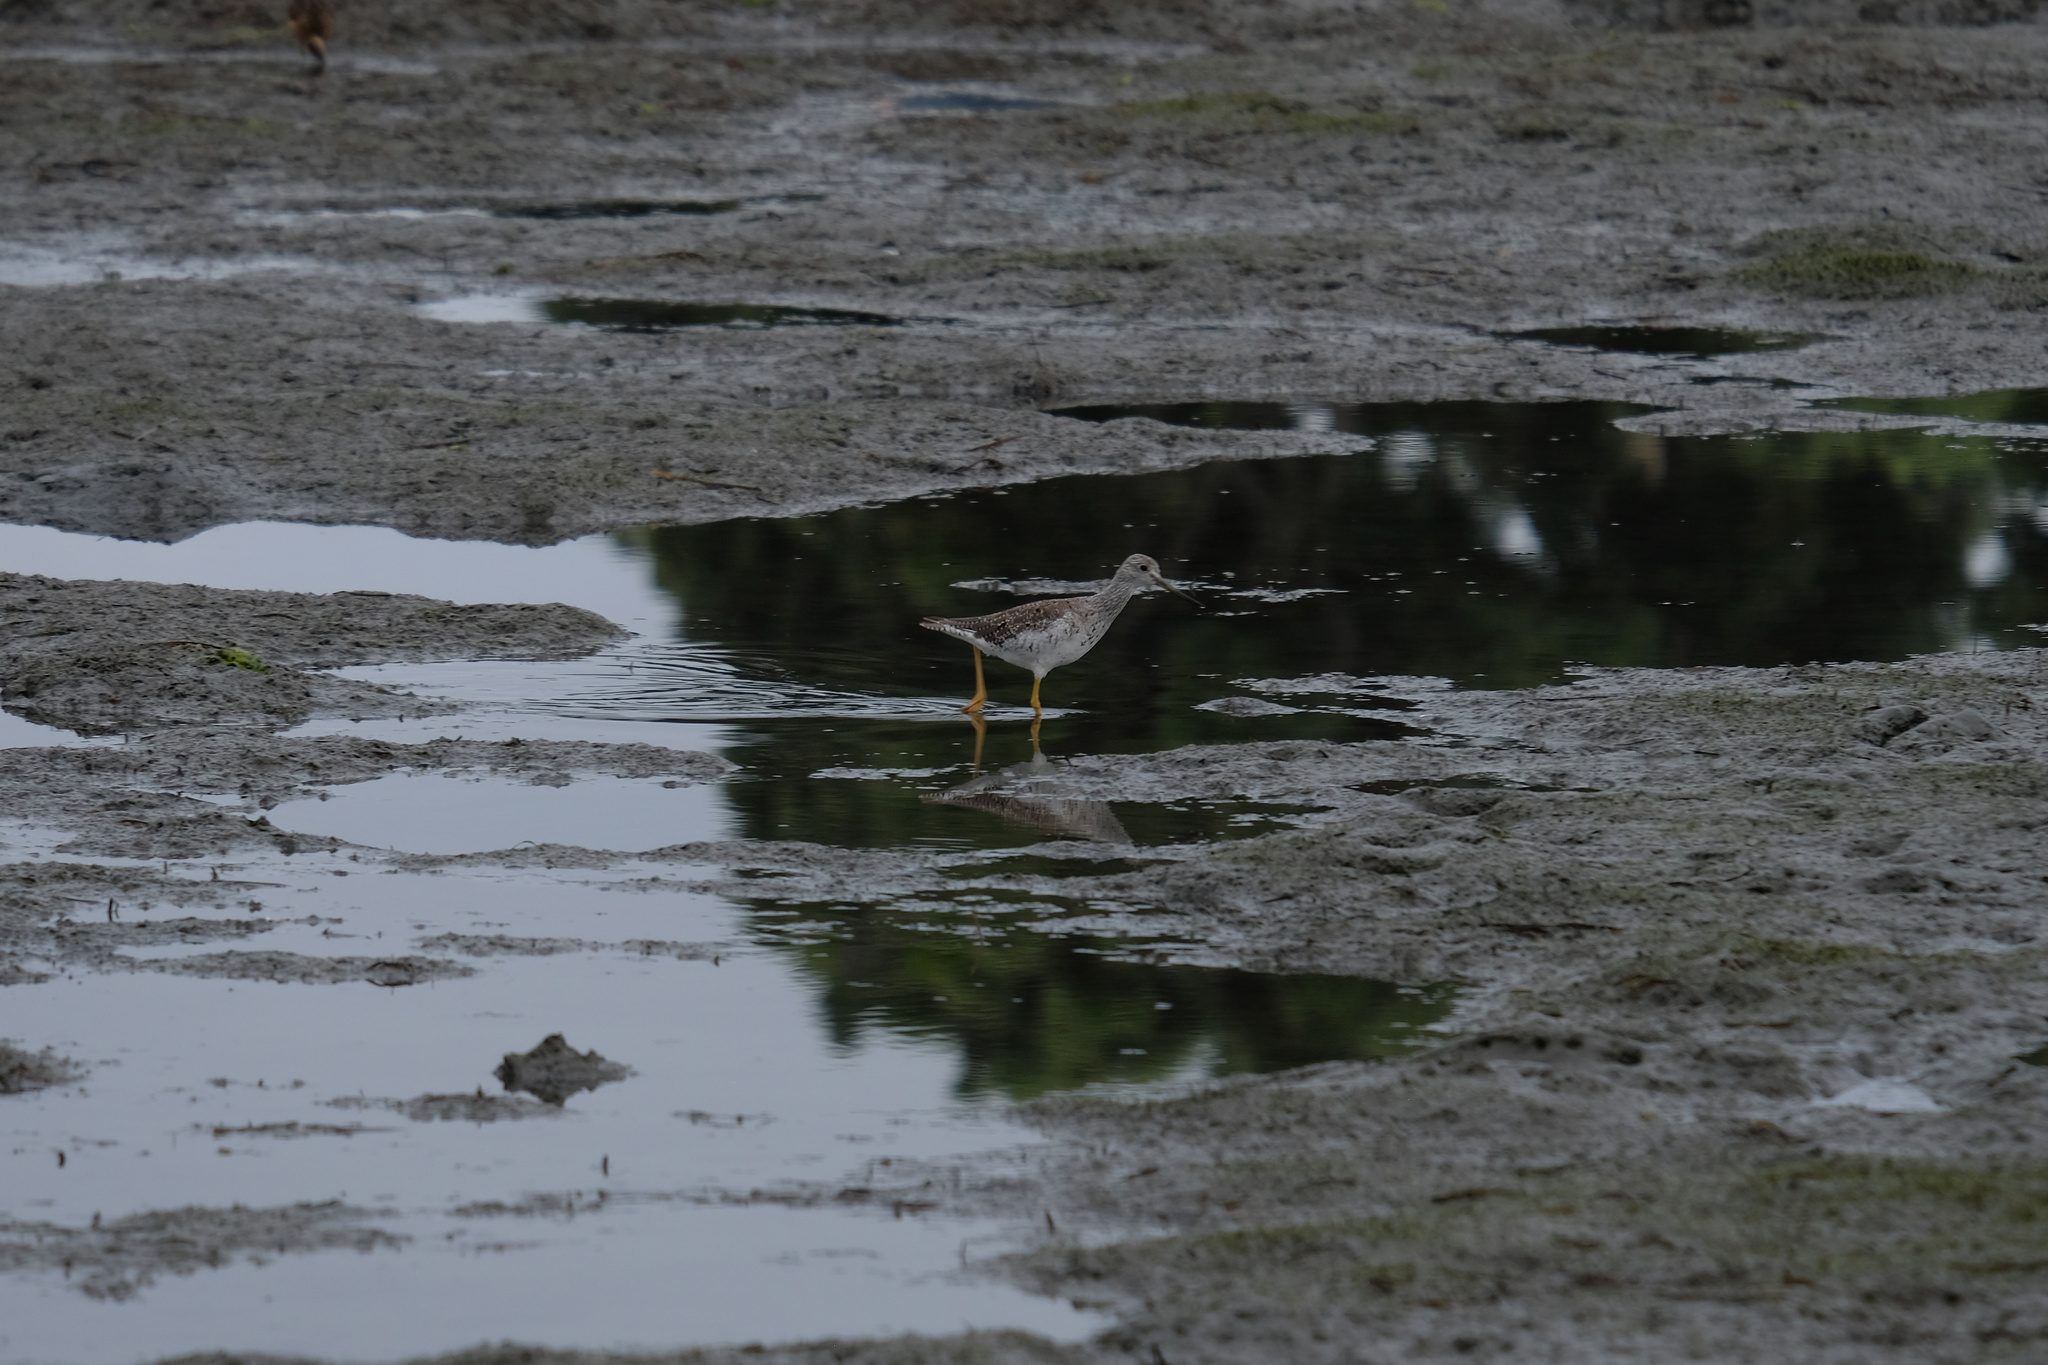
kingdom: Animalia
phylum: Chordata
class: Aves
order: Charadriiformes
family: Scolopacidae
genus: Tringa
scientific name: Tringa melanoleuca
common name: Greater yellowlegs
